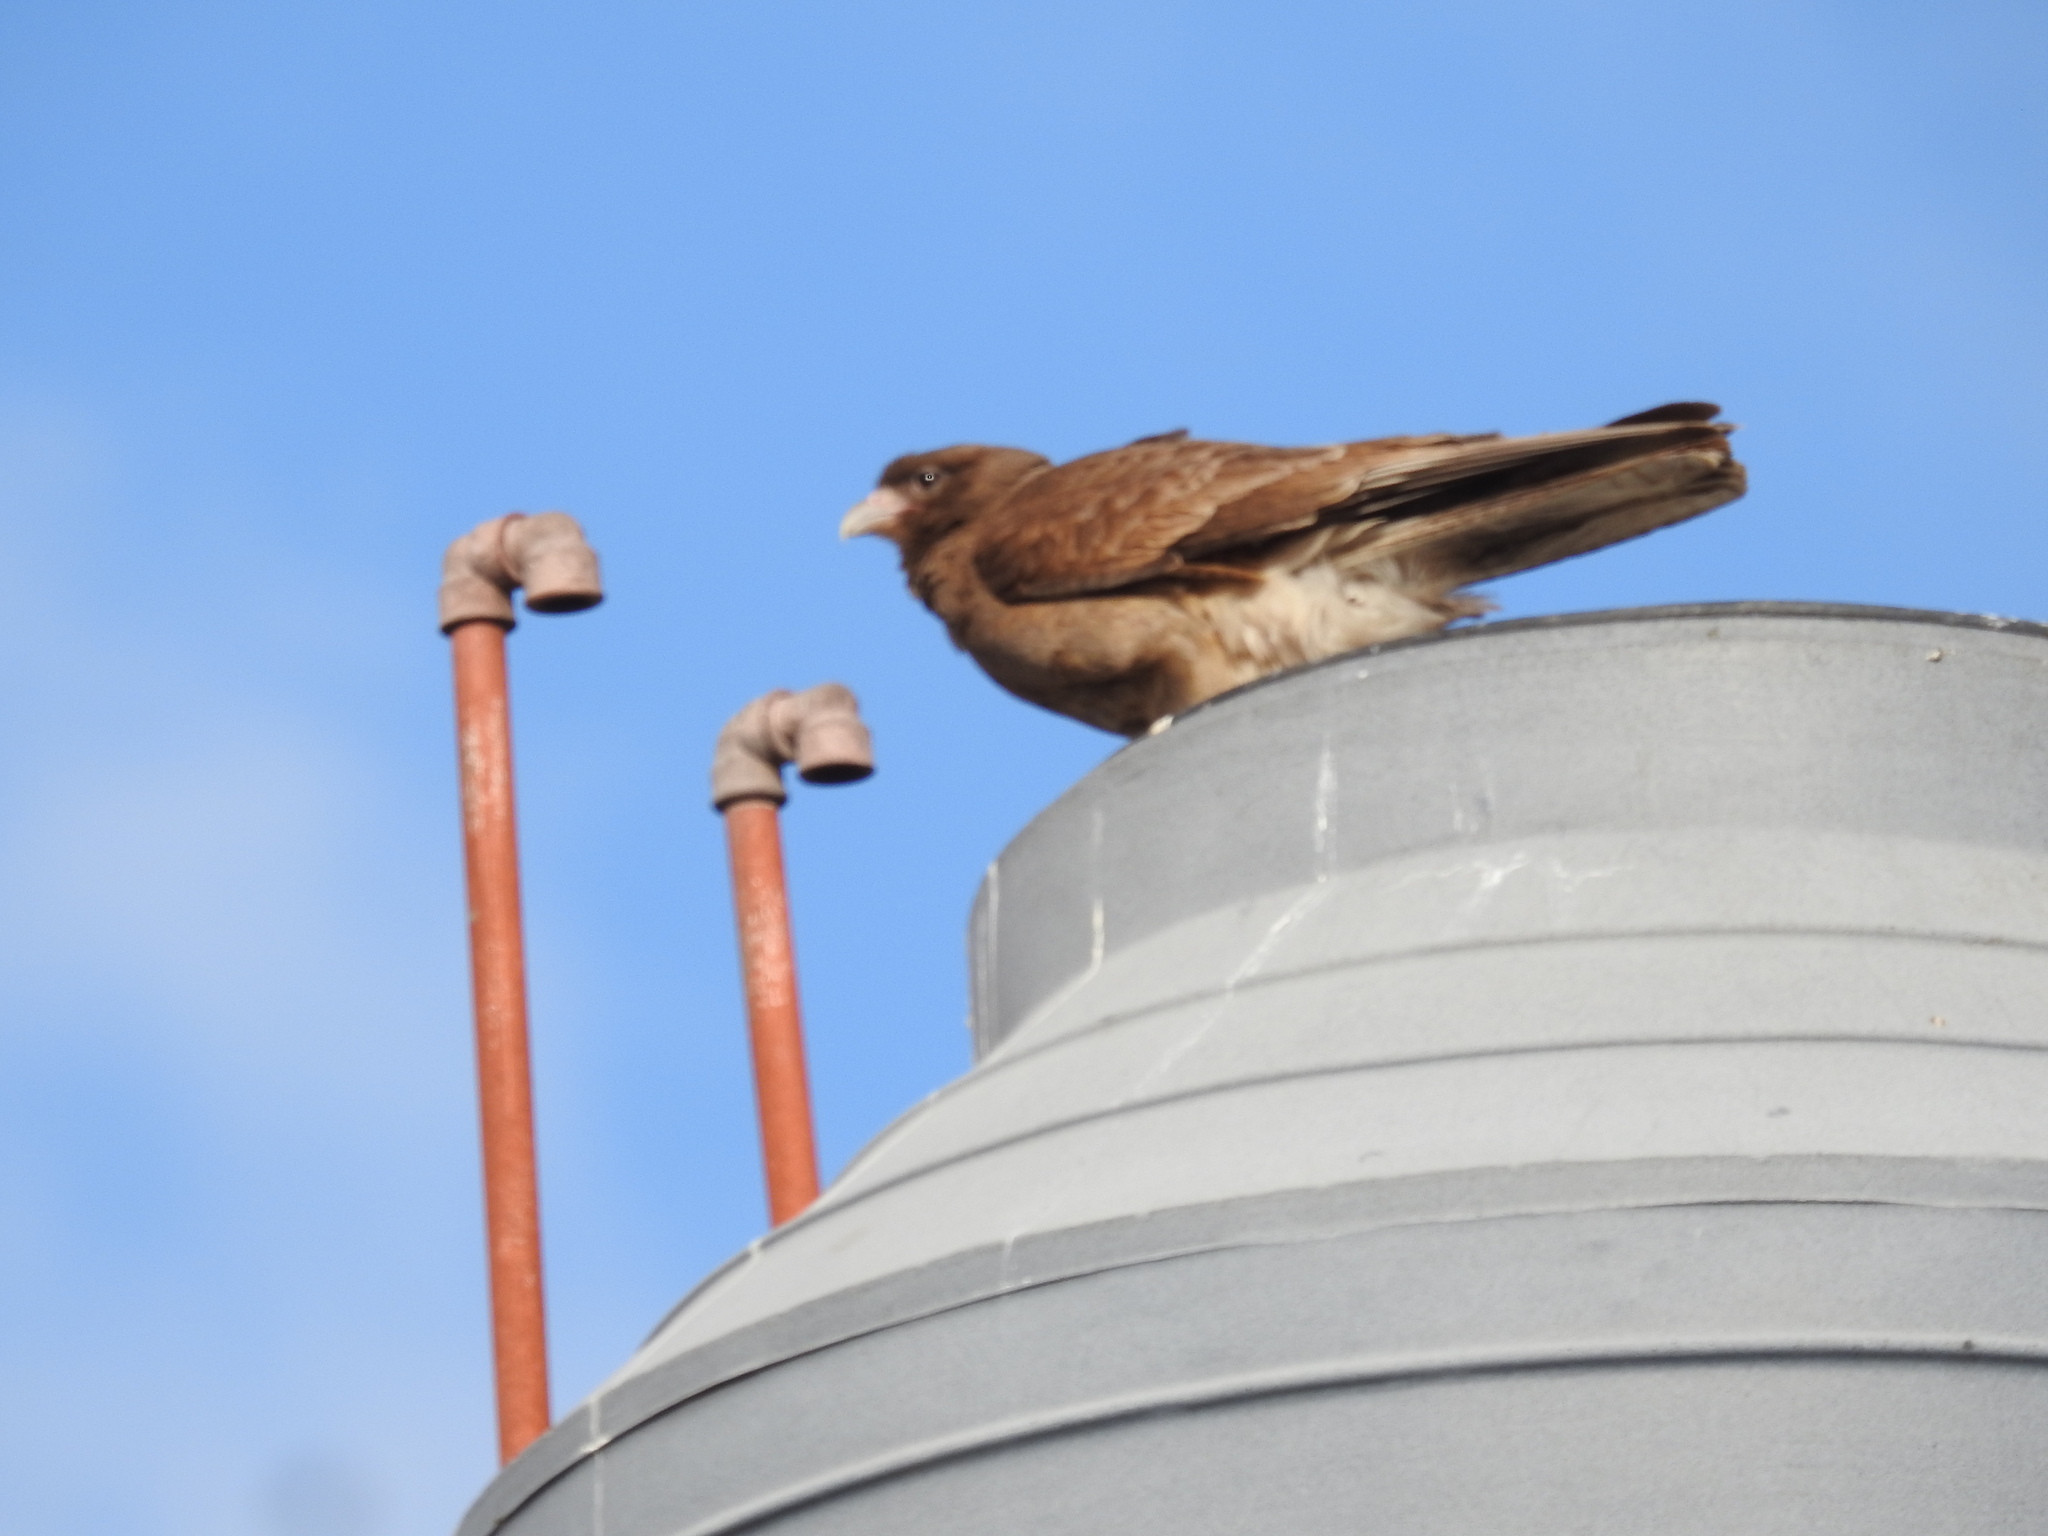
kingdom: Animalia
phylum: Chordata
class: Aves
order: Falconiformes
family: Falconidae
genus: Daptrius
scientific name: Daptrius
